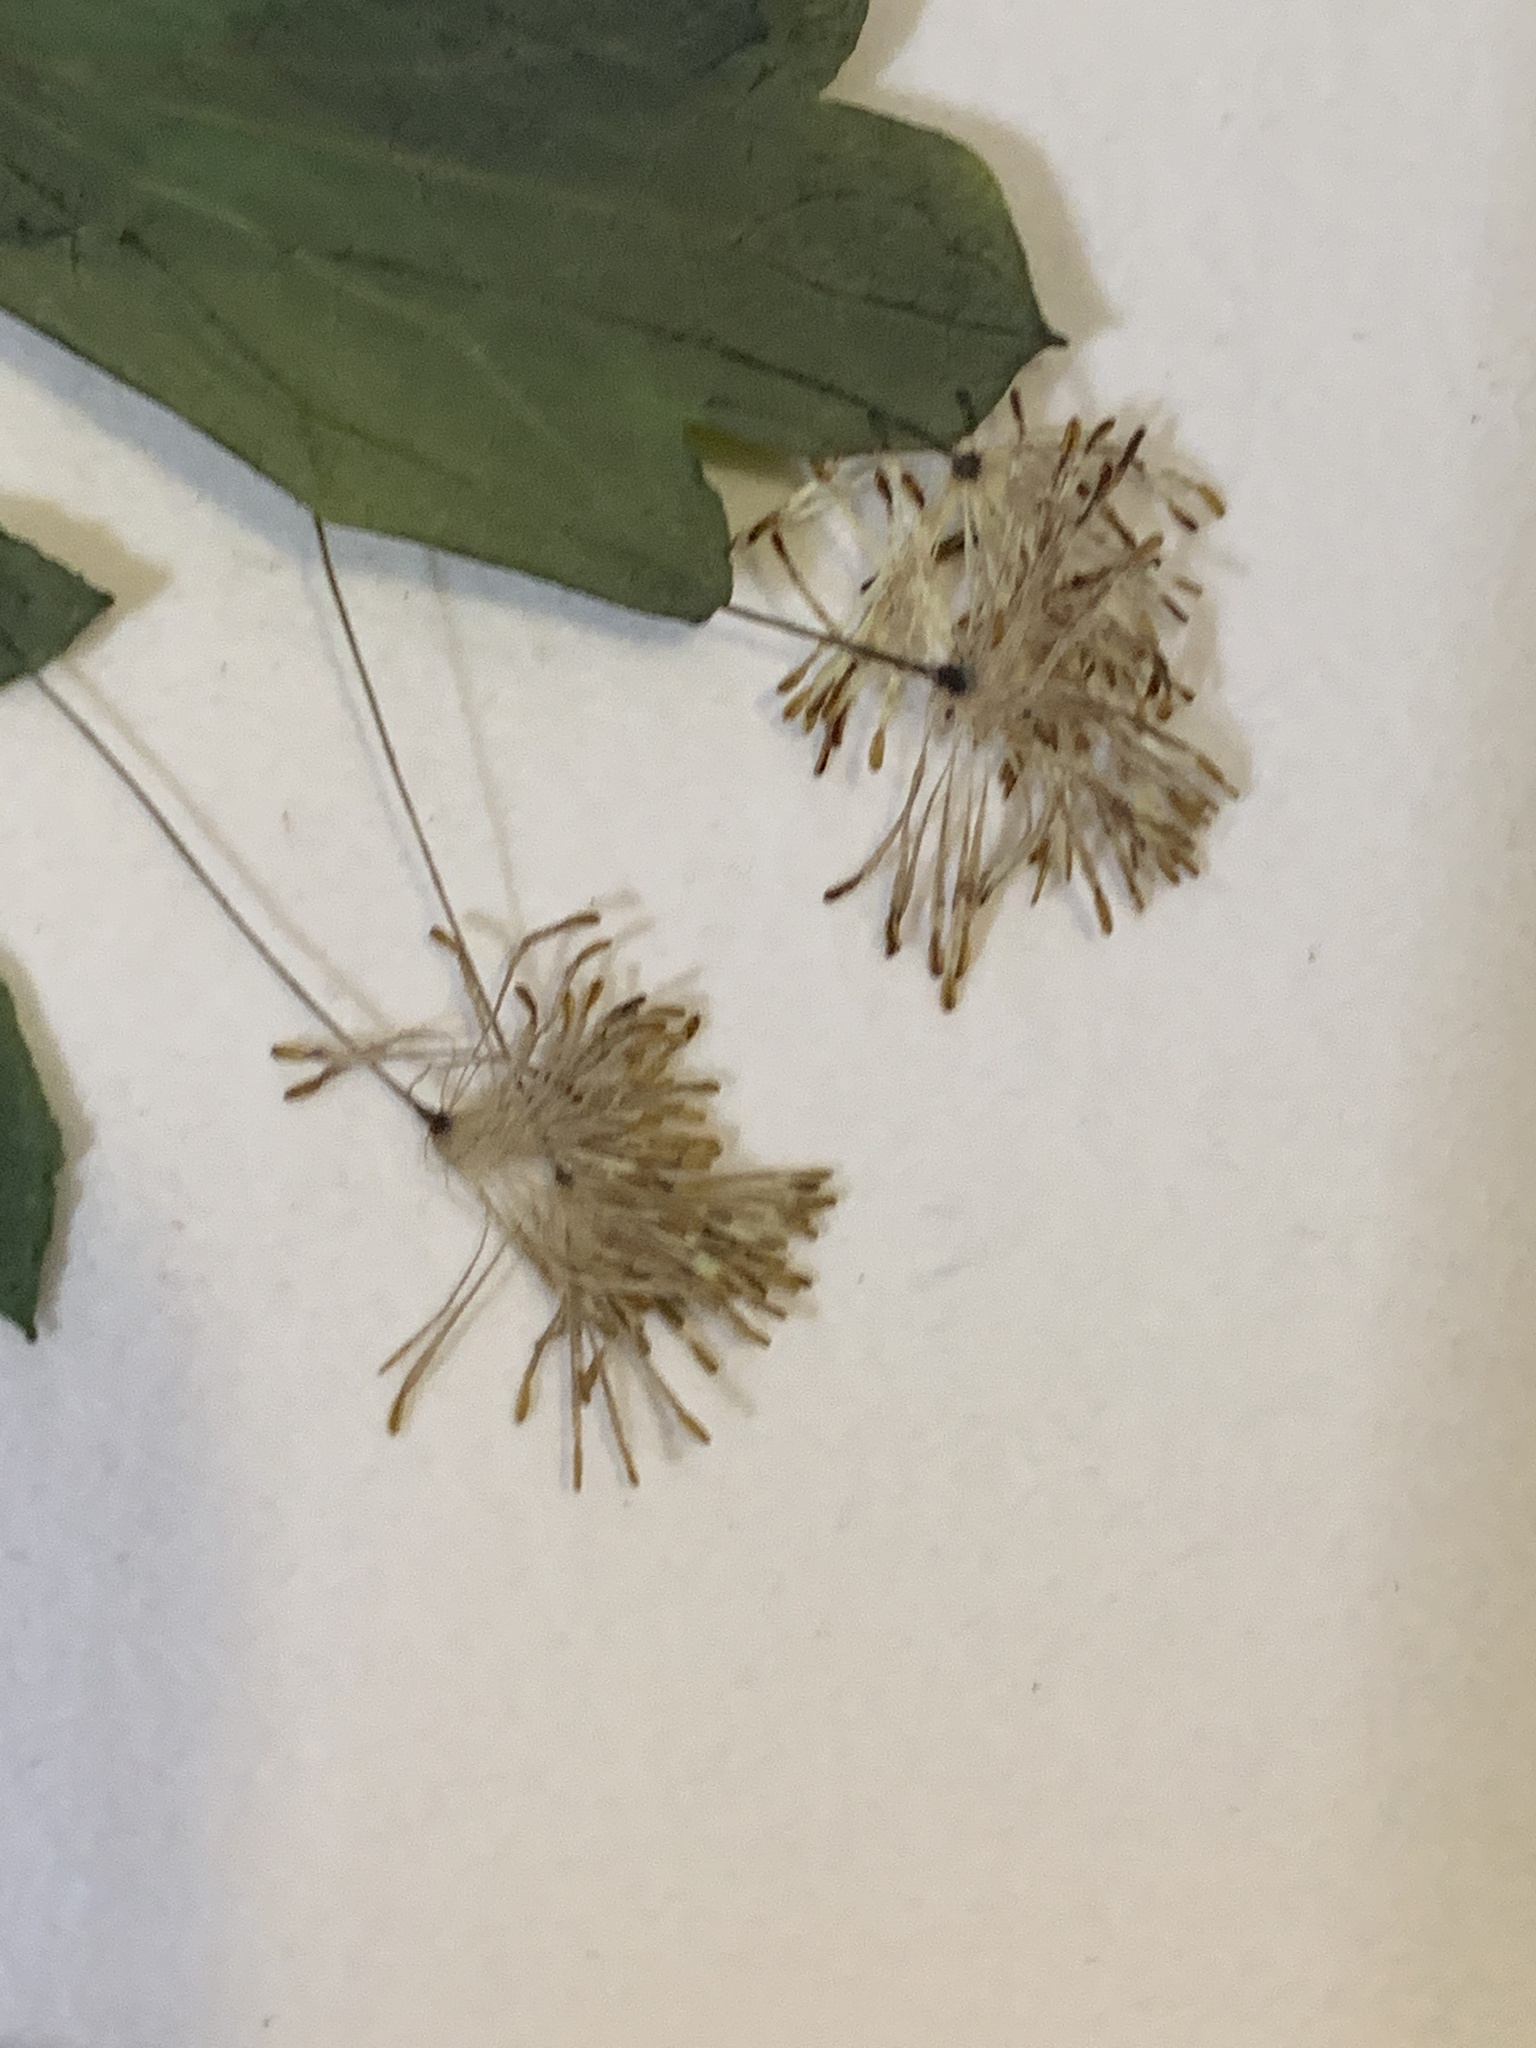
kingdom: Plantae
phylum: Tracheophyta
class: Magnoliopsida
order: Ranunculales
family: Ranunculaceae
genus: Thalictrum
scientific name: Thalictrum pubescens
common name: King-of-the-meadow
